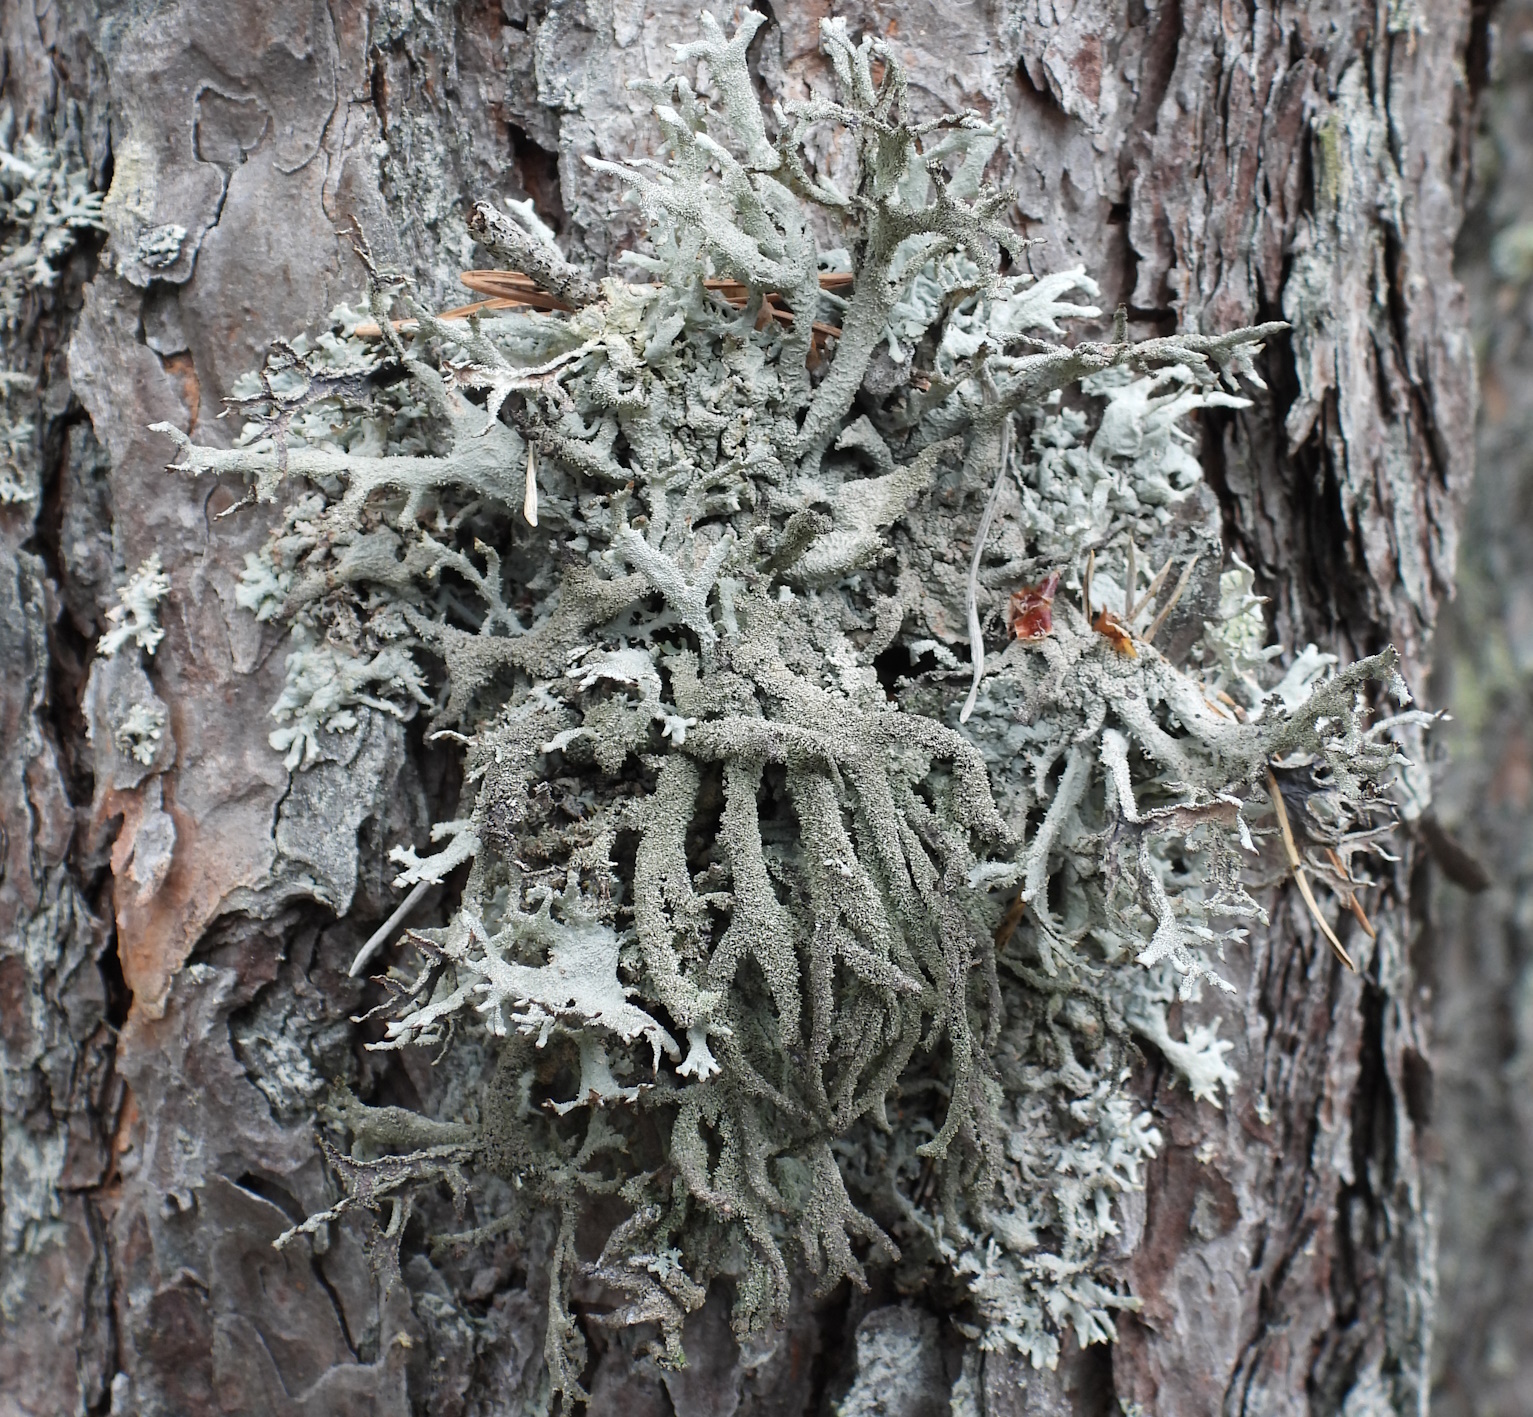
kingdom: Fungi
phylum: Ascomycota
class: Lecanoromycetes
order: Lecanorales
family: Parmeliaceae
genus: Pseudevernia
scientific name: Pseudevernia furfuracea
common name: Tree moss
